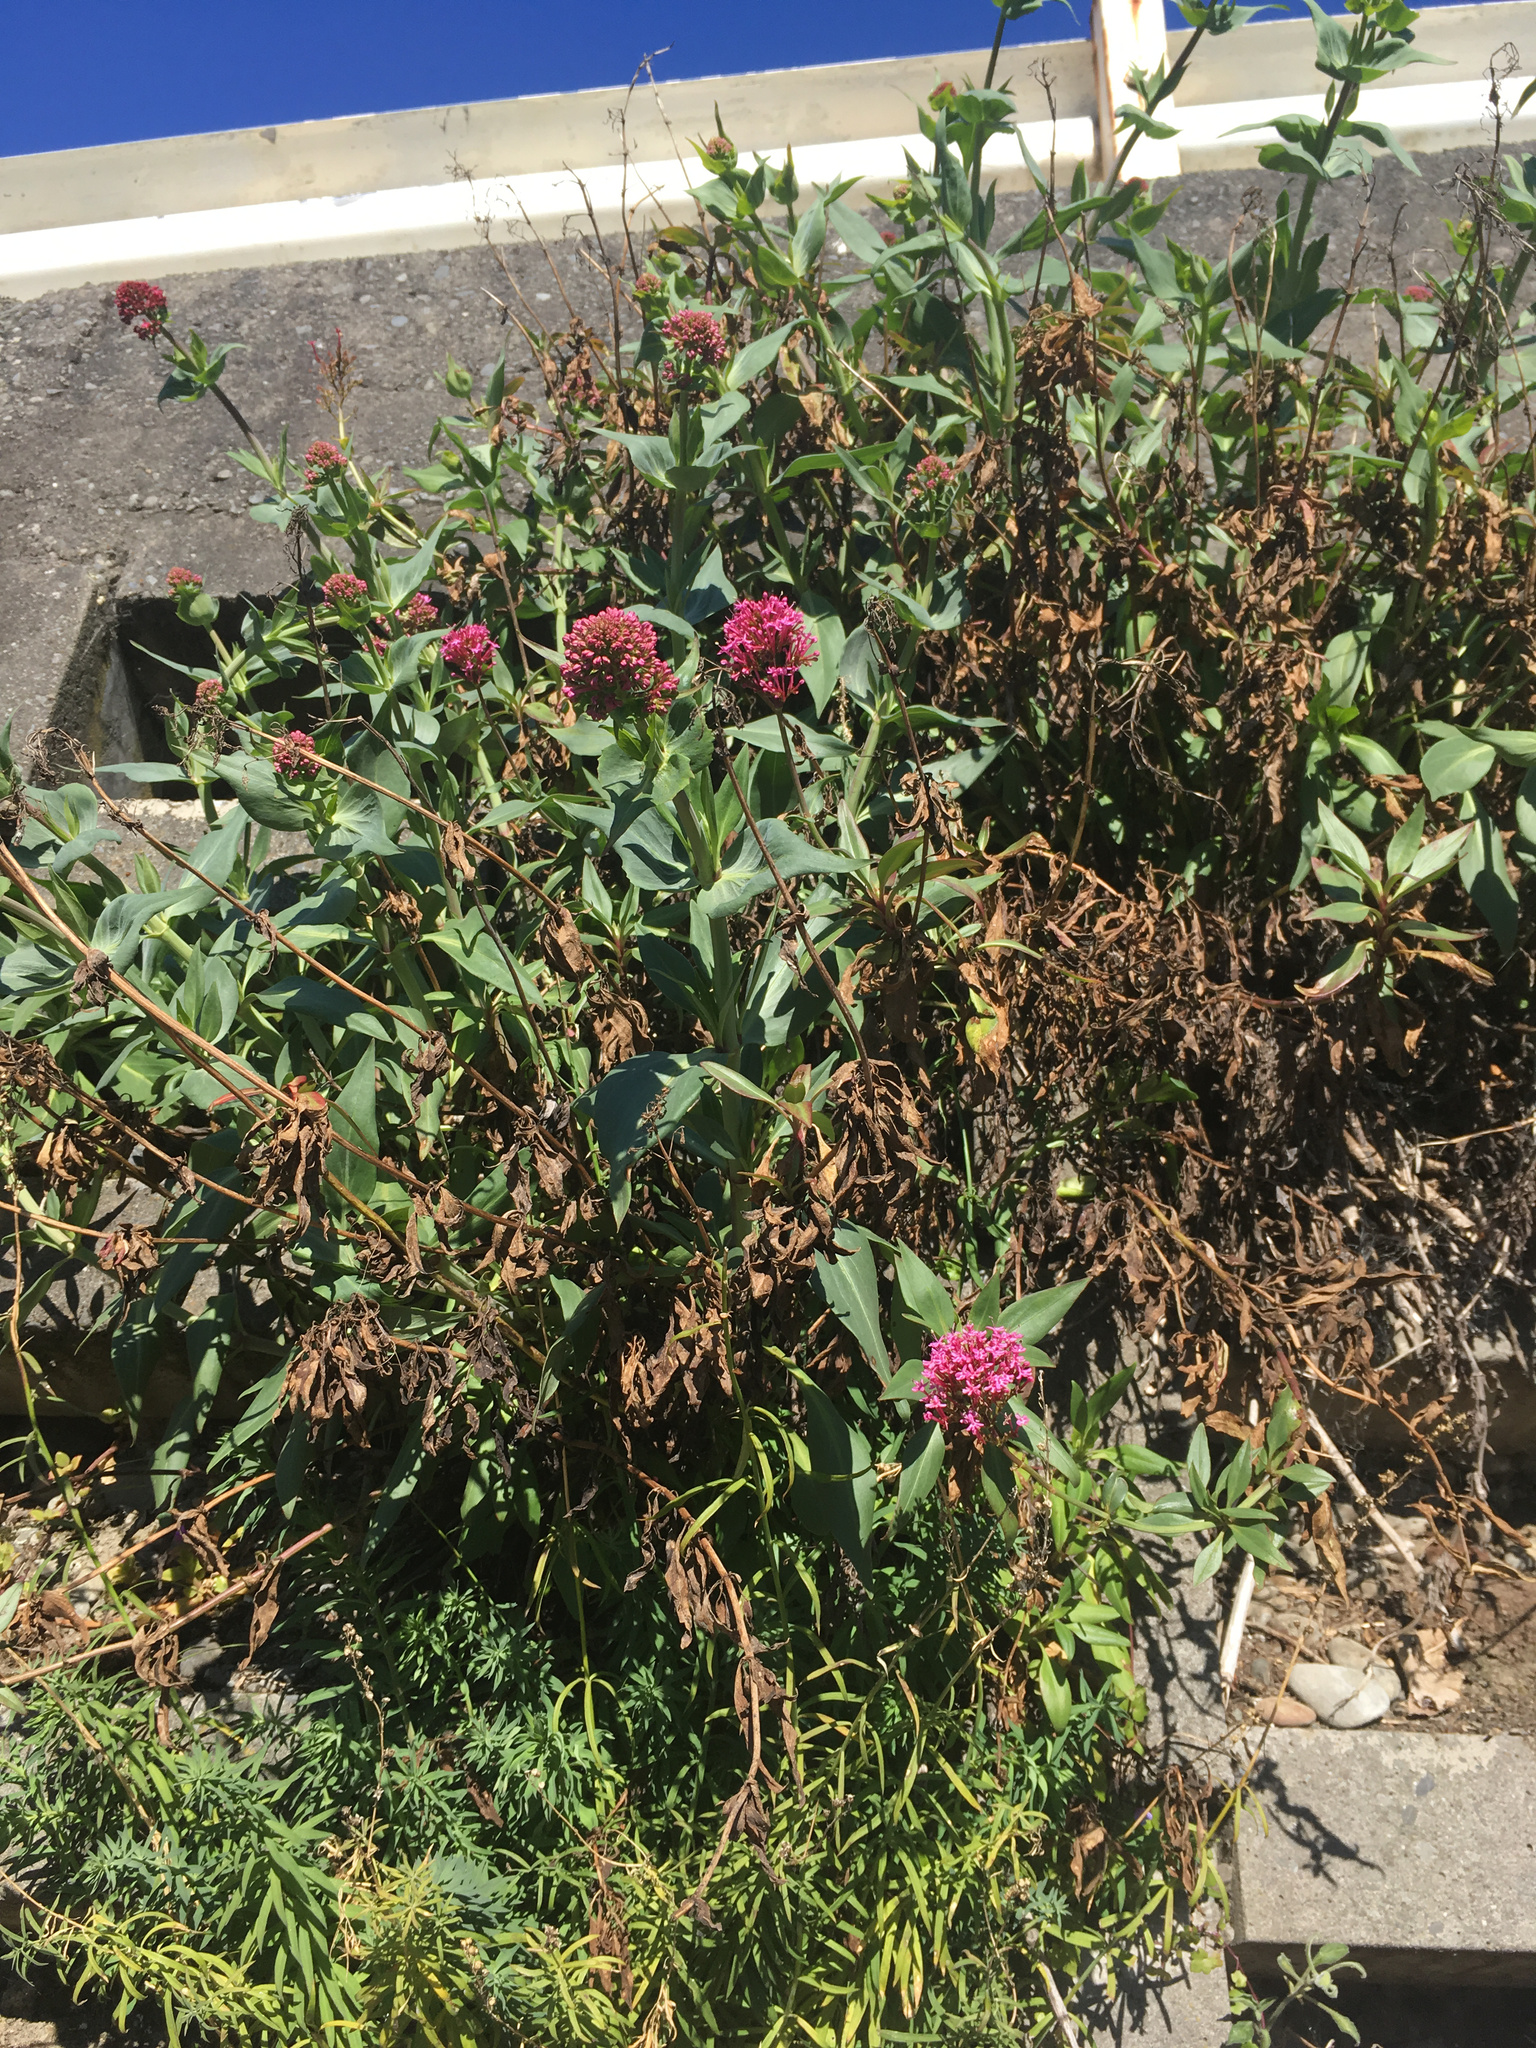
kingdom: Plantae
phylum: Tracheophyta
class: Magnoliopsida
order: Dipsacales
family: Caprifoliaceae
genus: Centranthus
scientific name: Centranthus ruber
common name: Red valerian
